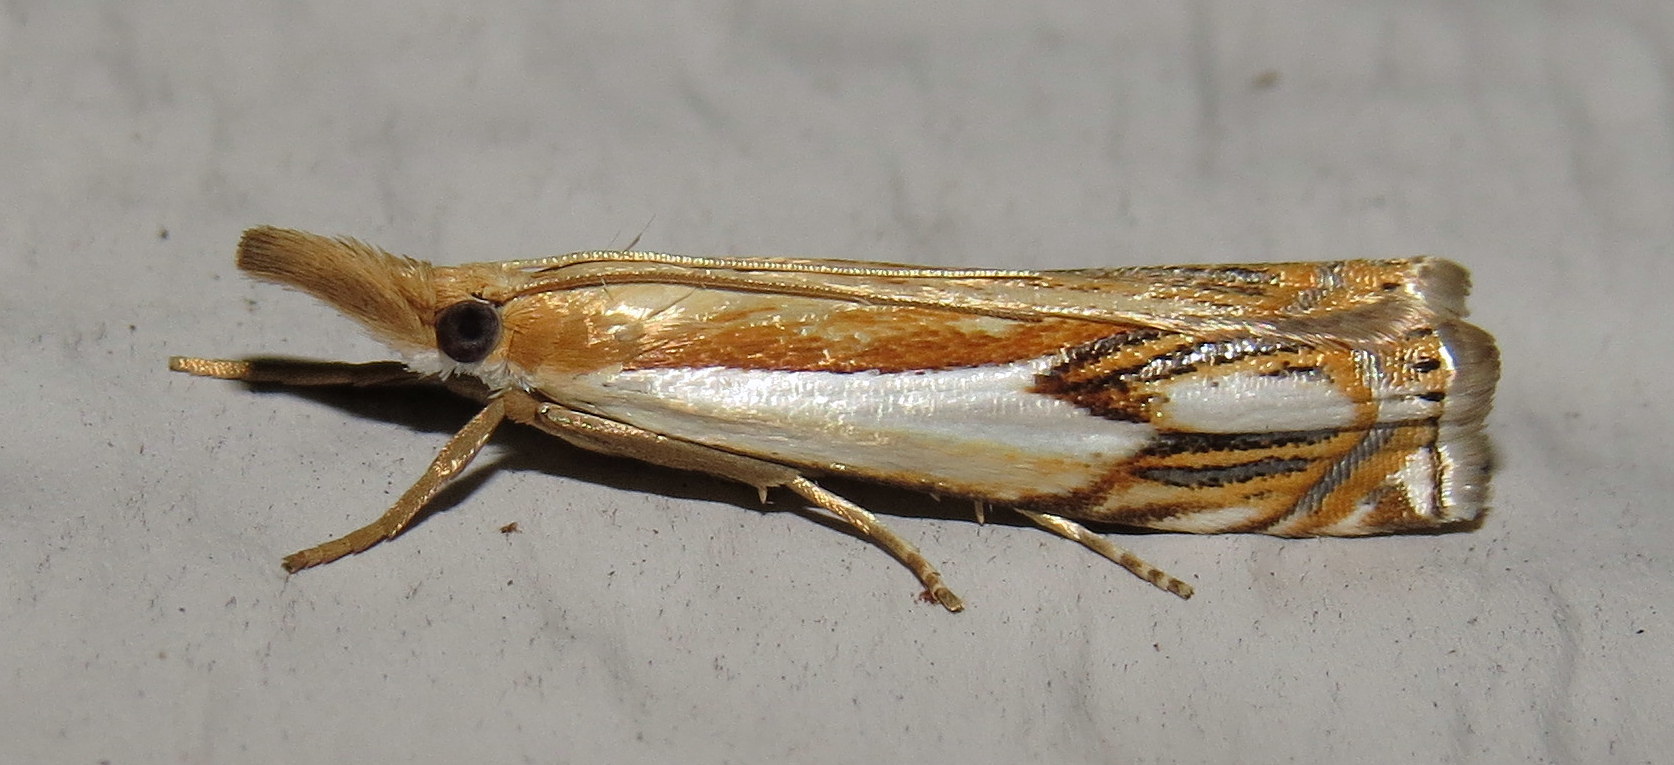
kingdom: Animalia
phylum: Arthropoda
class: Insecta
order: Lepidoptera
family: Crambidae
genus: Crambus
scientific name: Crambus agitatellus
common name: Double-banded grass-veneer
